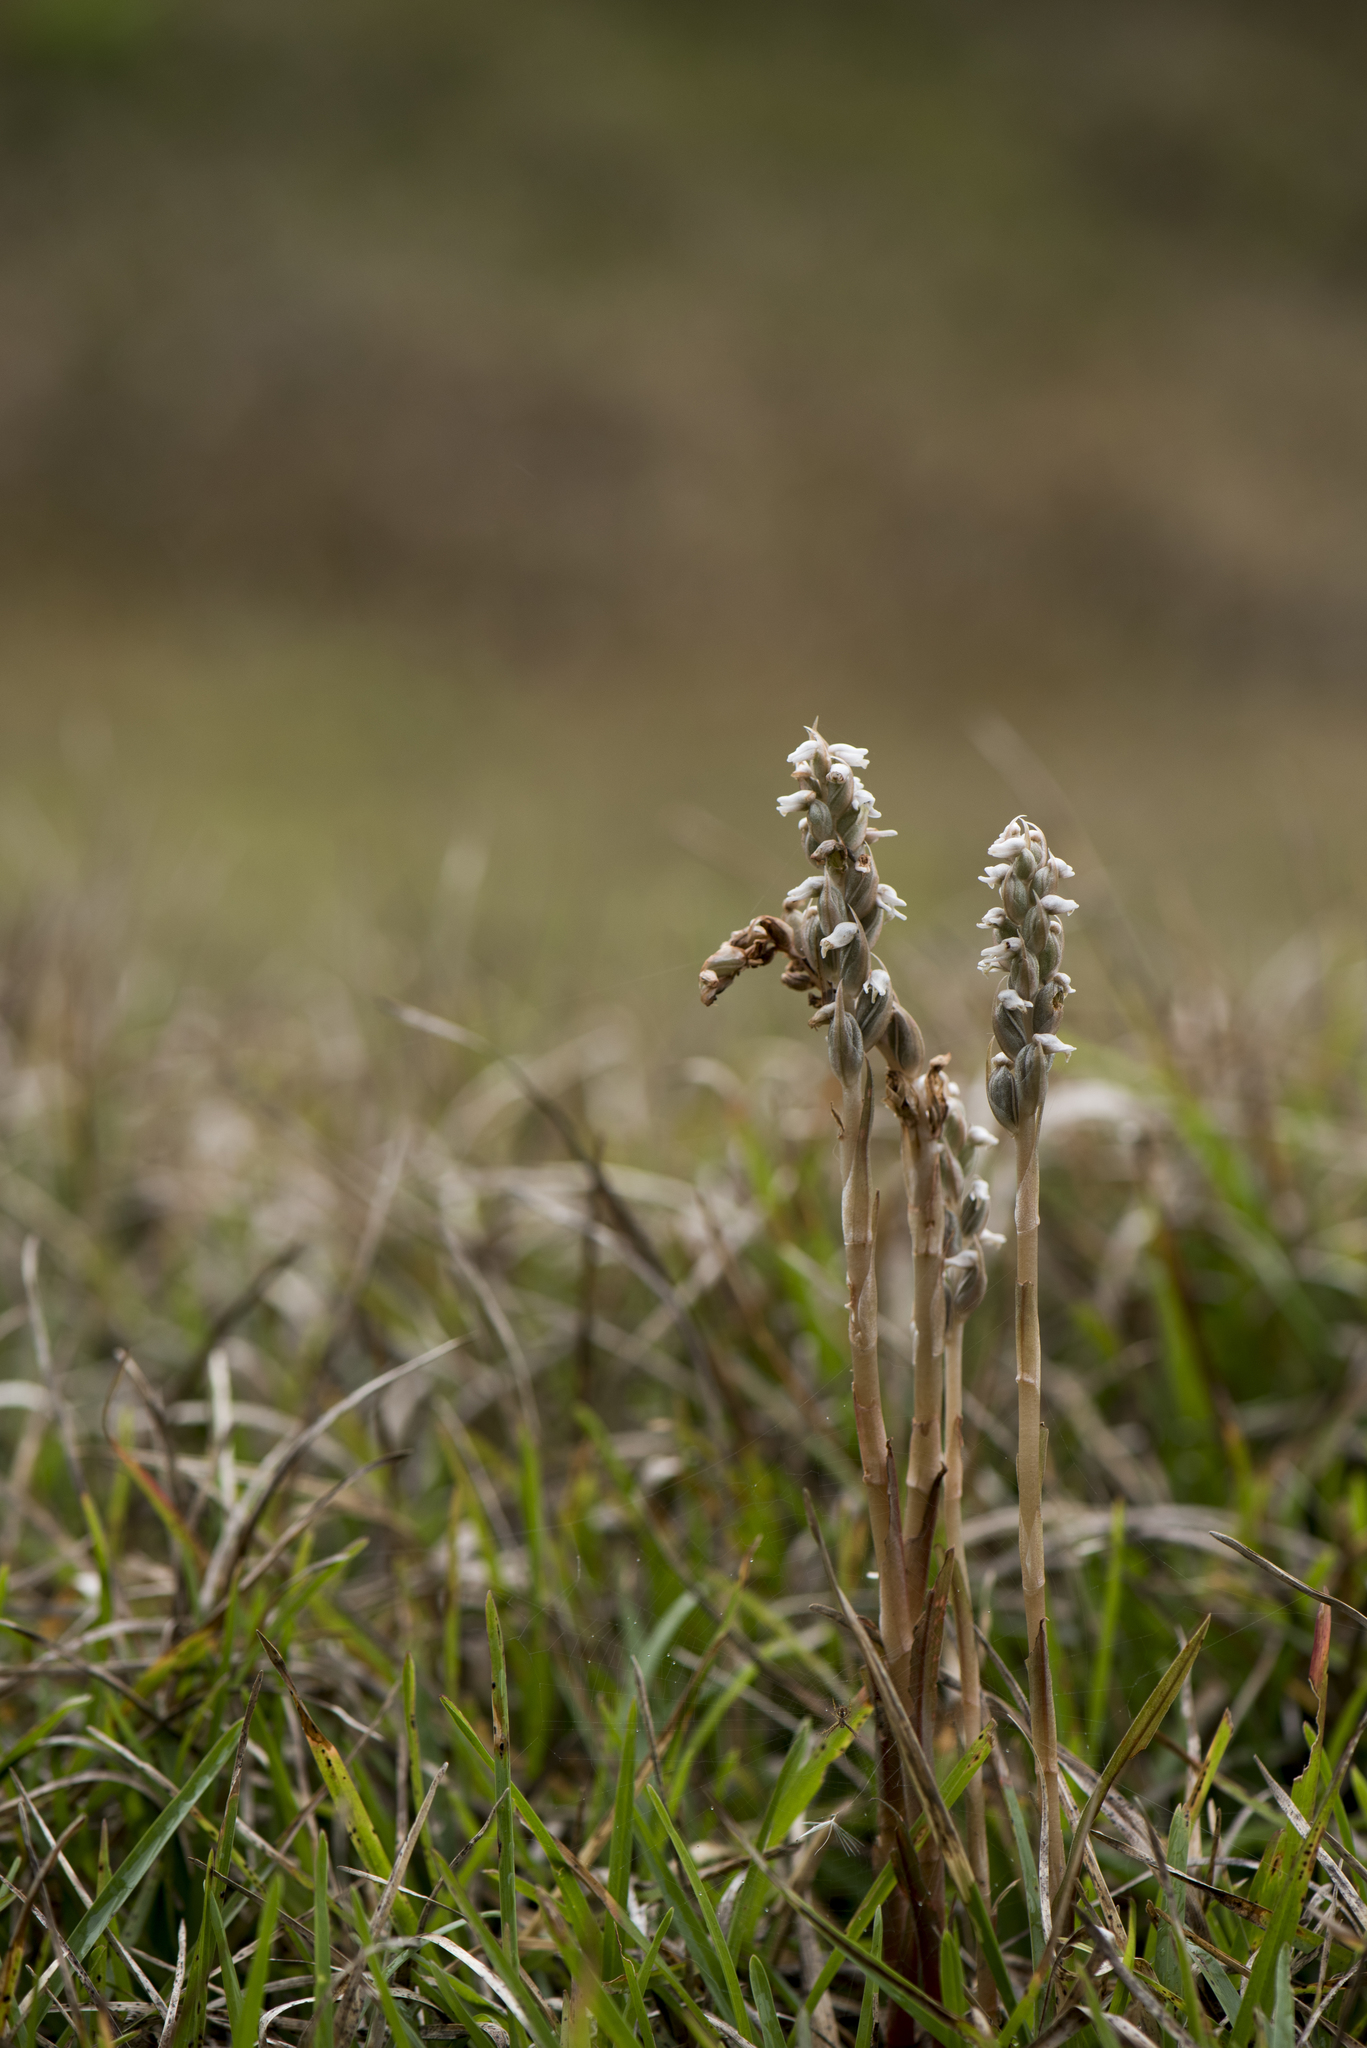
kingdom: Plantae
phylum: Tracheophyta
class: Liliopsida
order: Asparagales
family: Orchidaceae
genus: Zeuxine
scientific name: Zeuxine strateumatica
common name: Soldier's orchid
